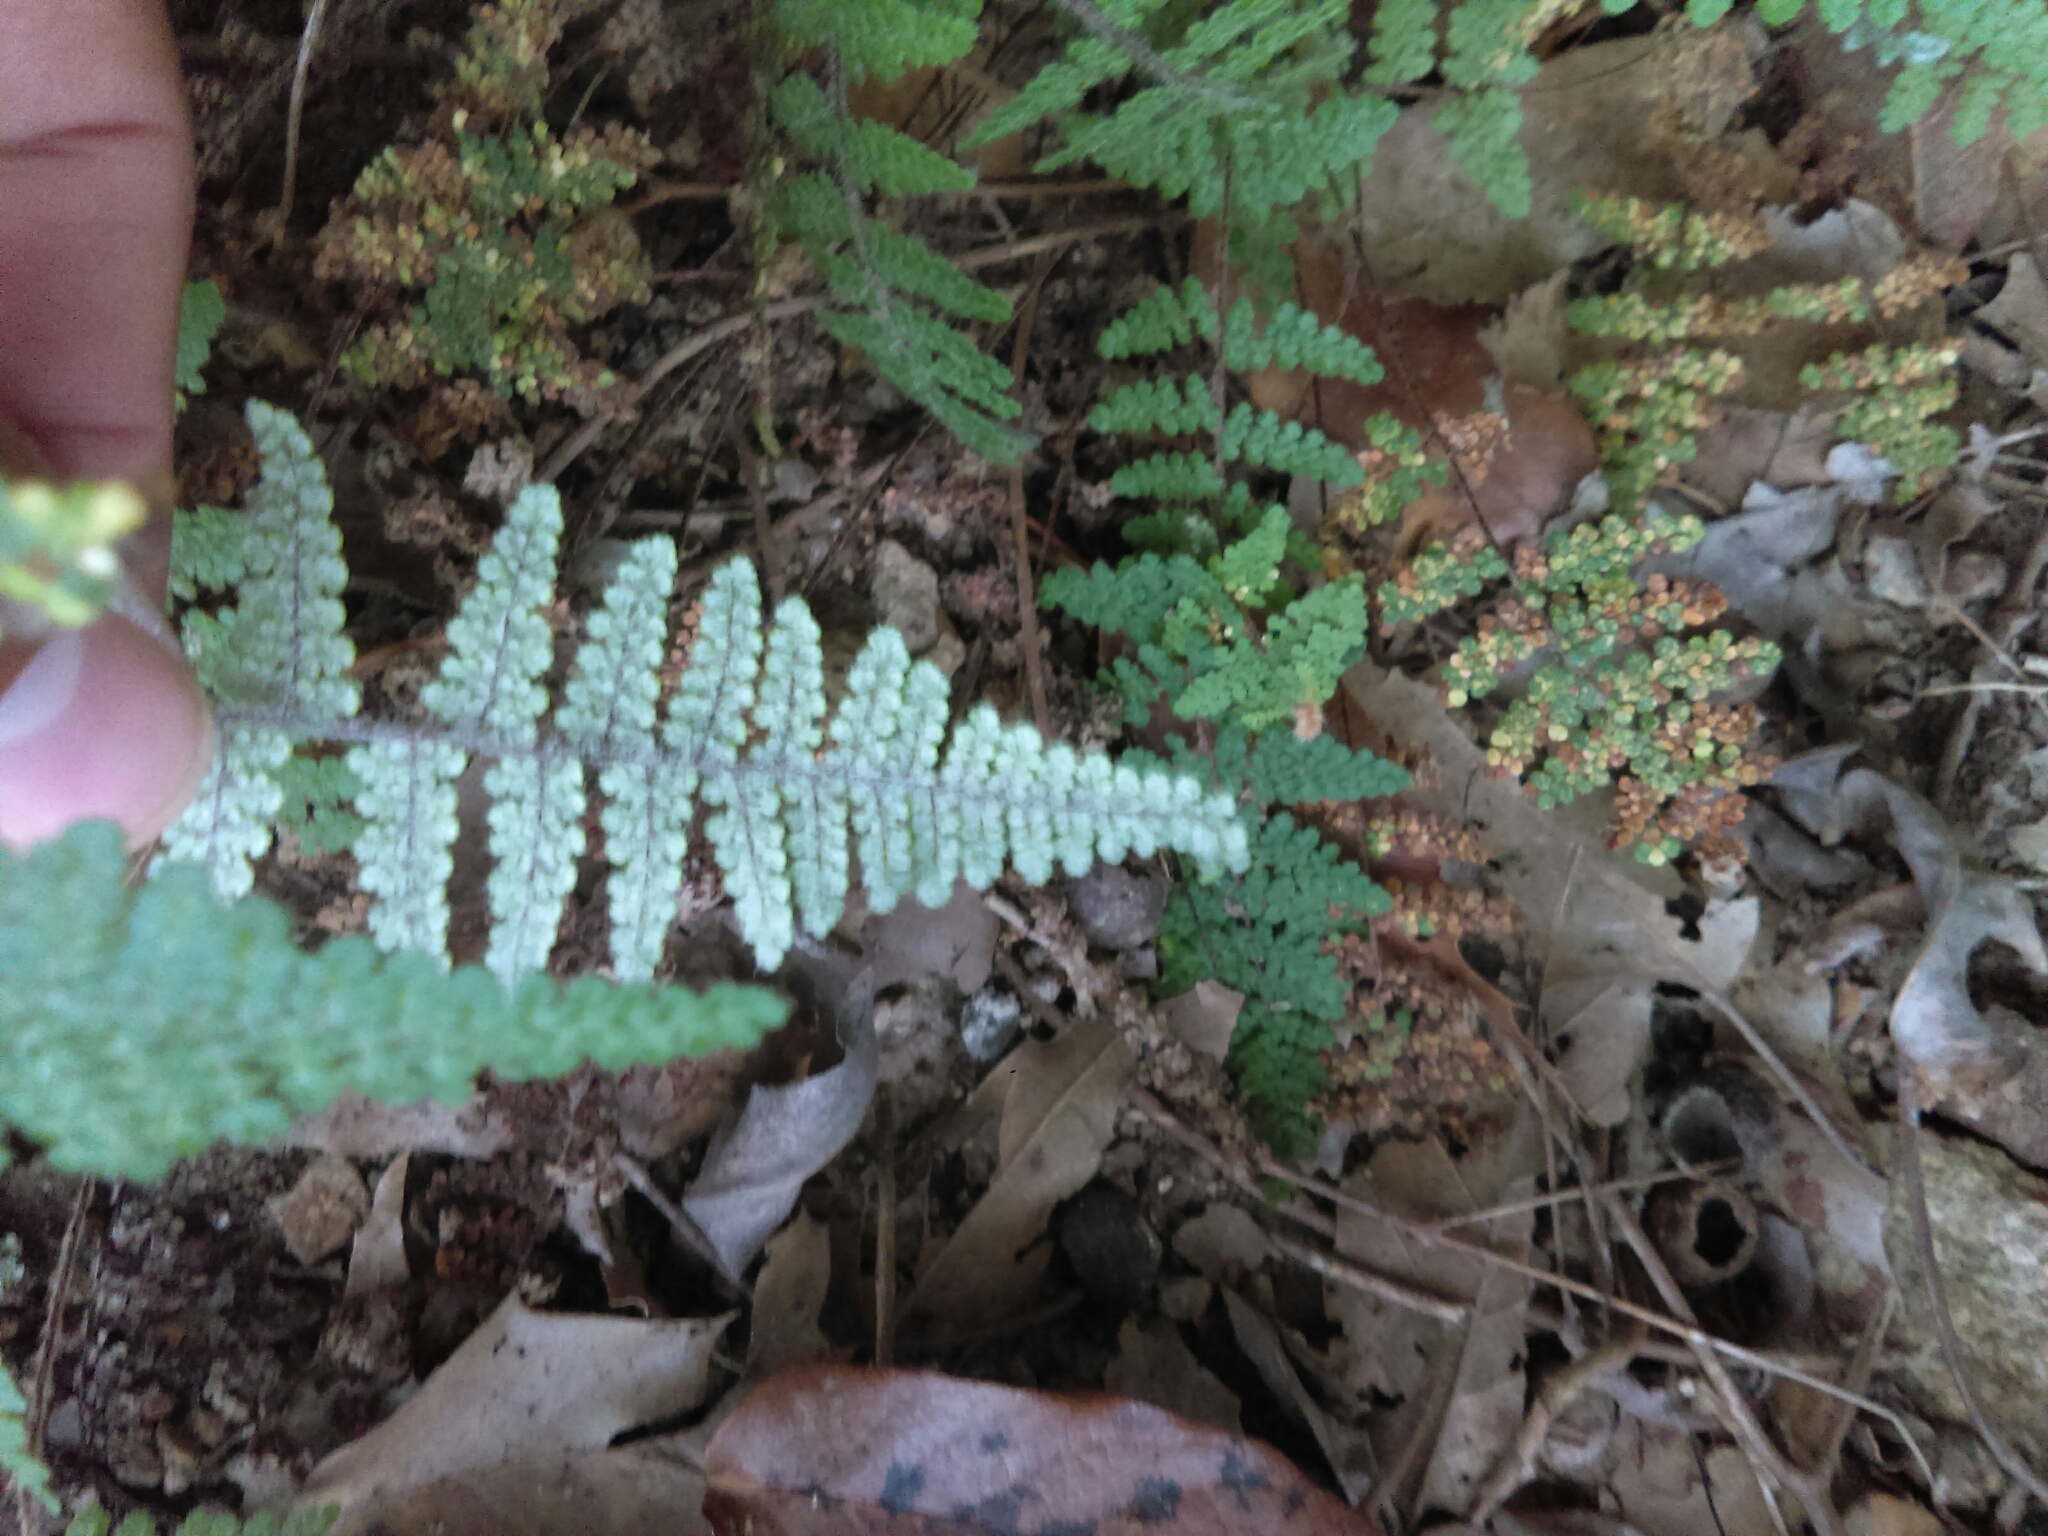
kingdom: Plantae
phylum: Tracheophyta
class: Polypodiopsida
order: Polypodiales
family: Pteridaceae
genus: Myriopteris
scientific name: Myriopteris myriophylla
